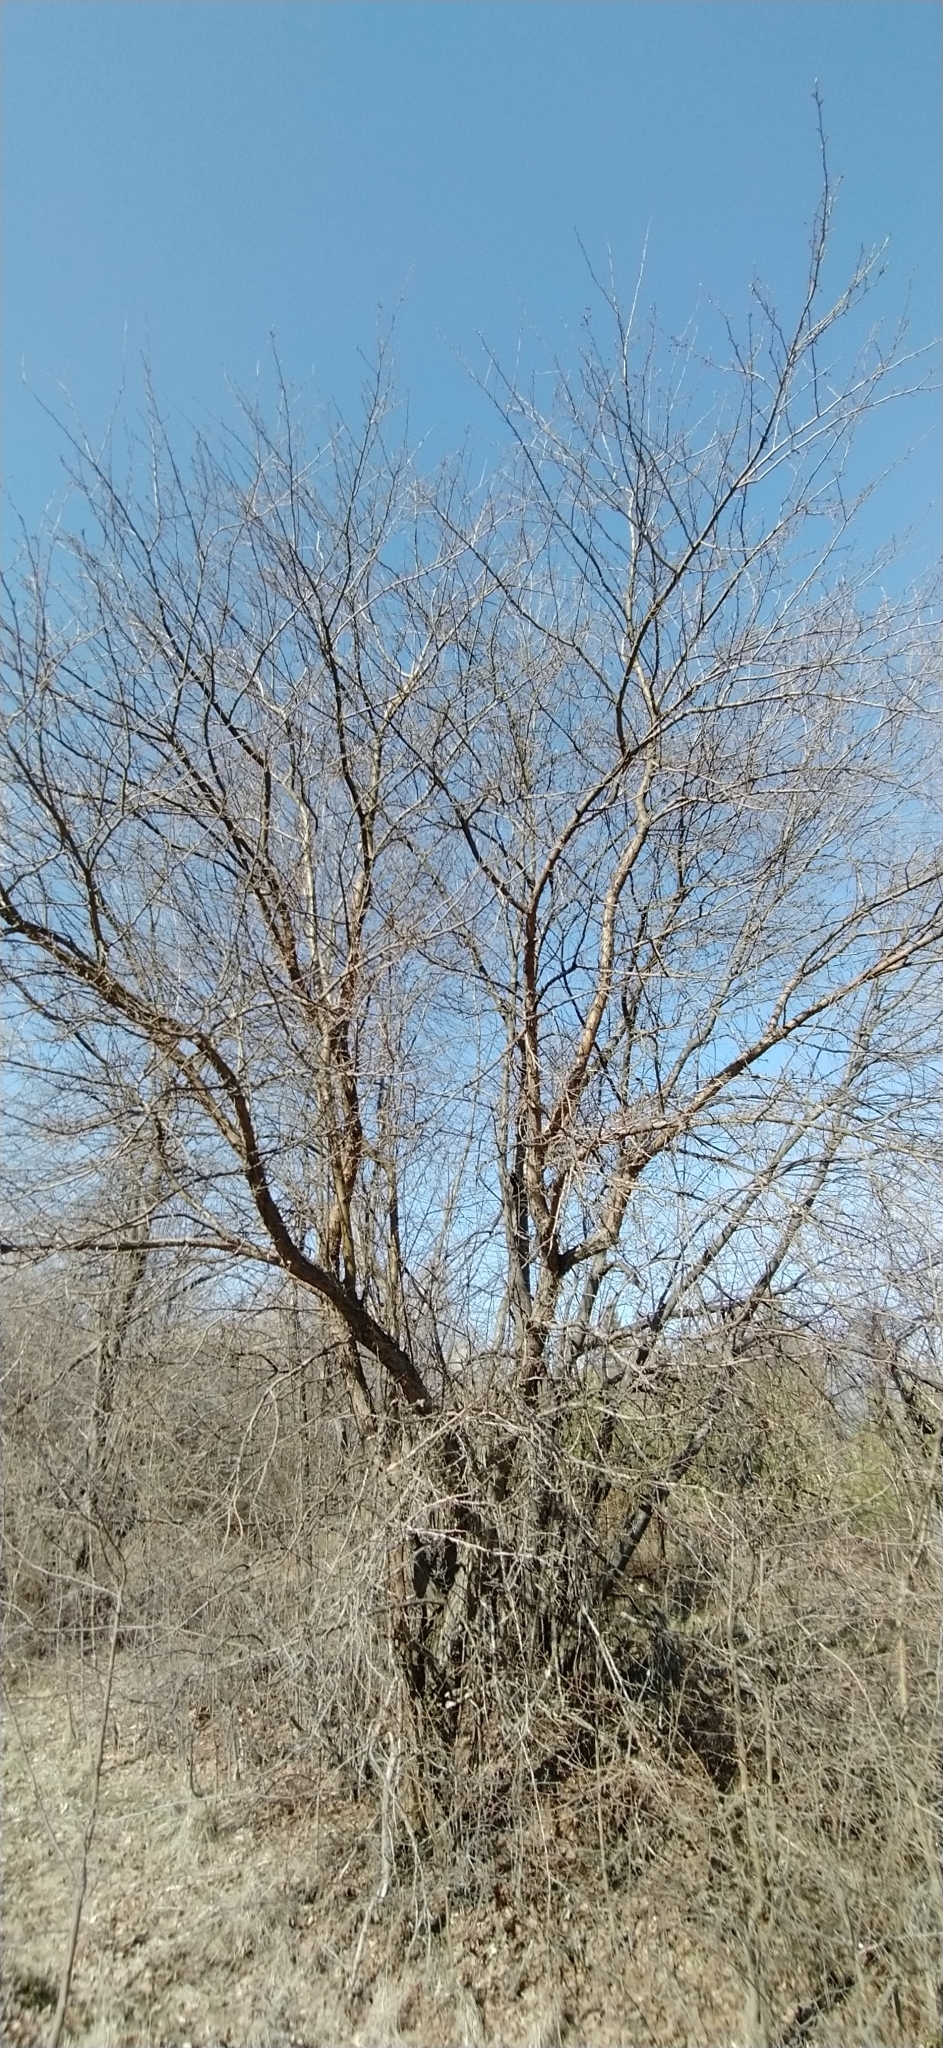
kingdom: Plantae
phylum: Tracheophyta
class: Magnoliopsida
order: Rosales
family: Rosaceae
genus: Malus
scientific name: Malus baccata
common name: Siberian crab
